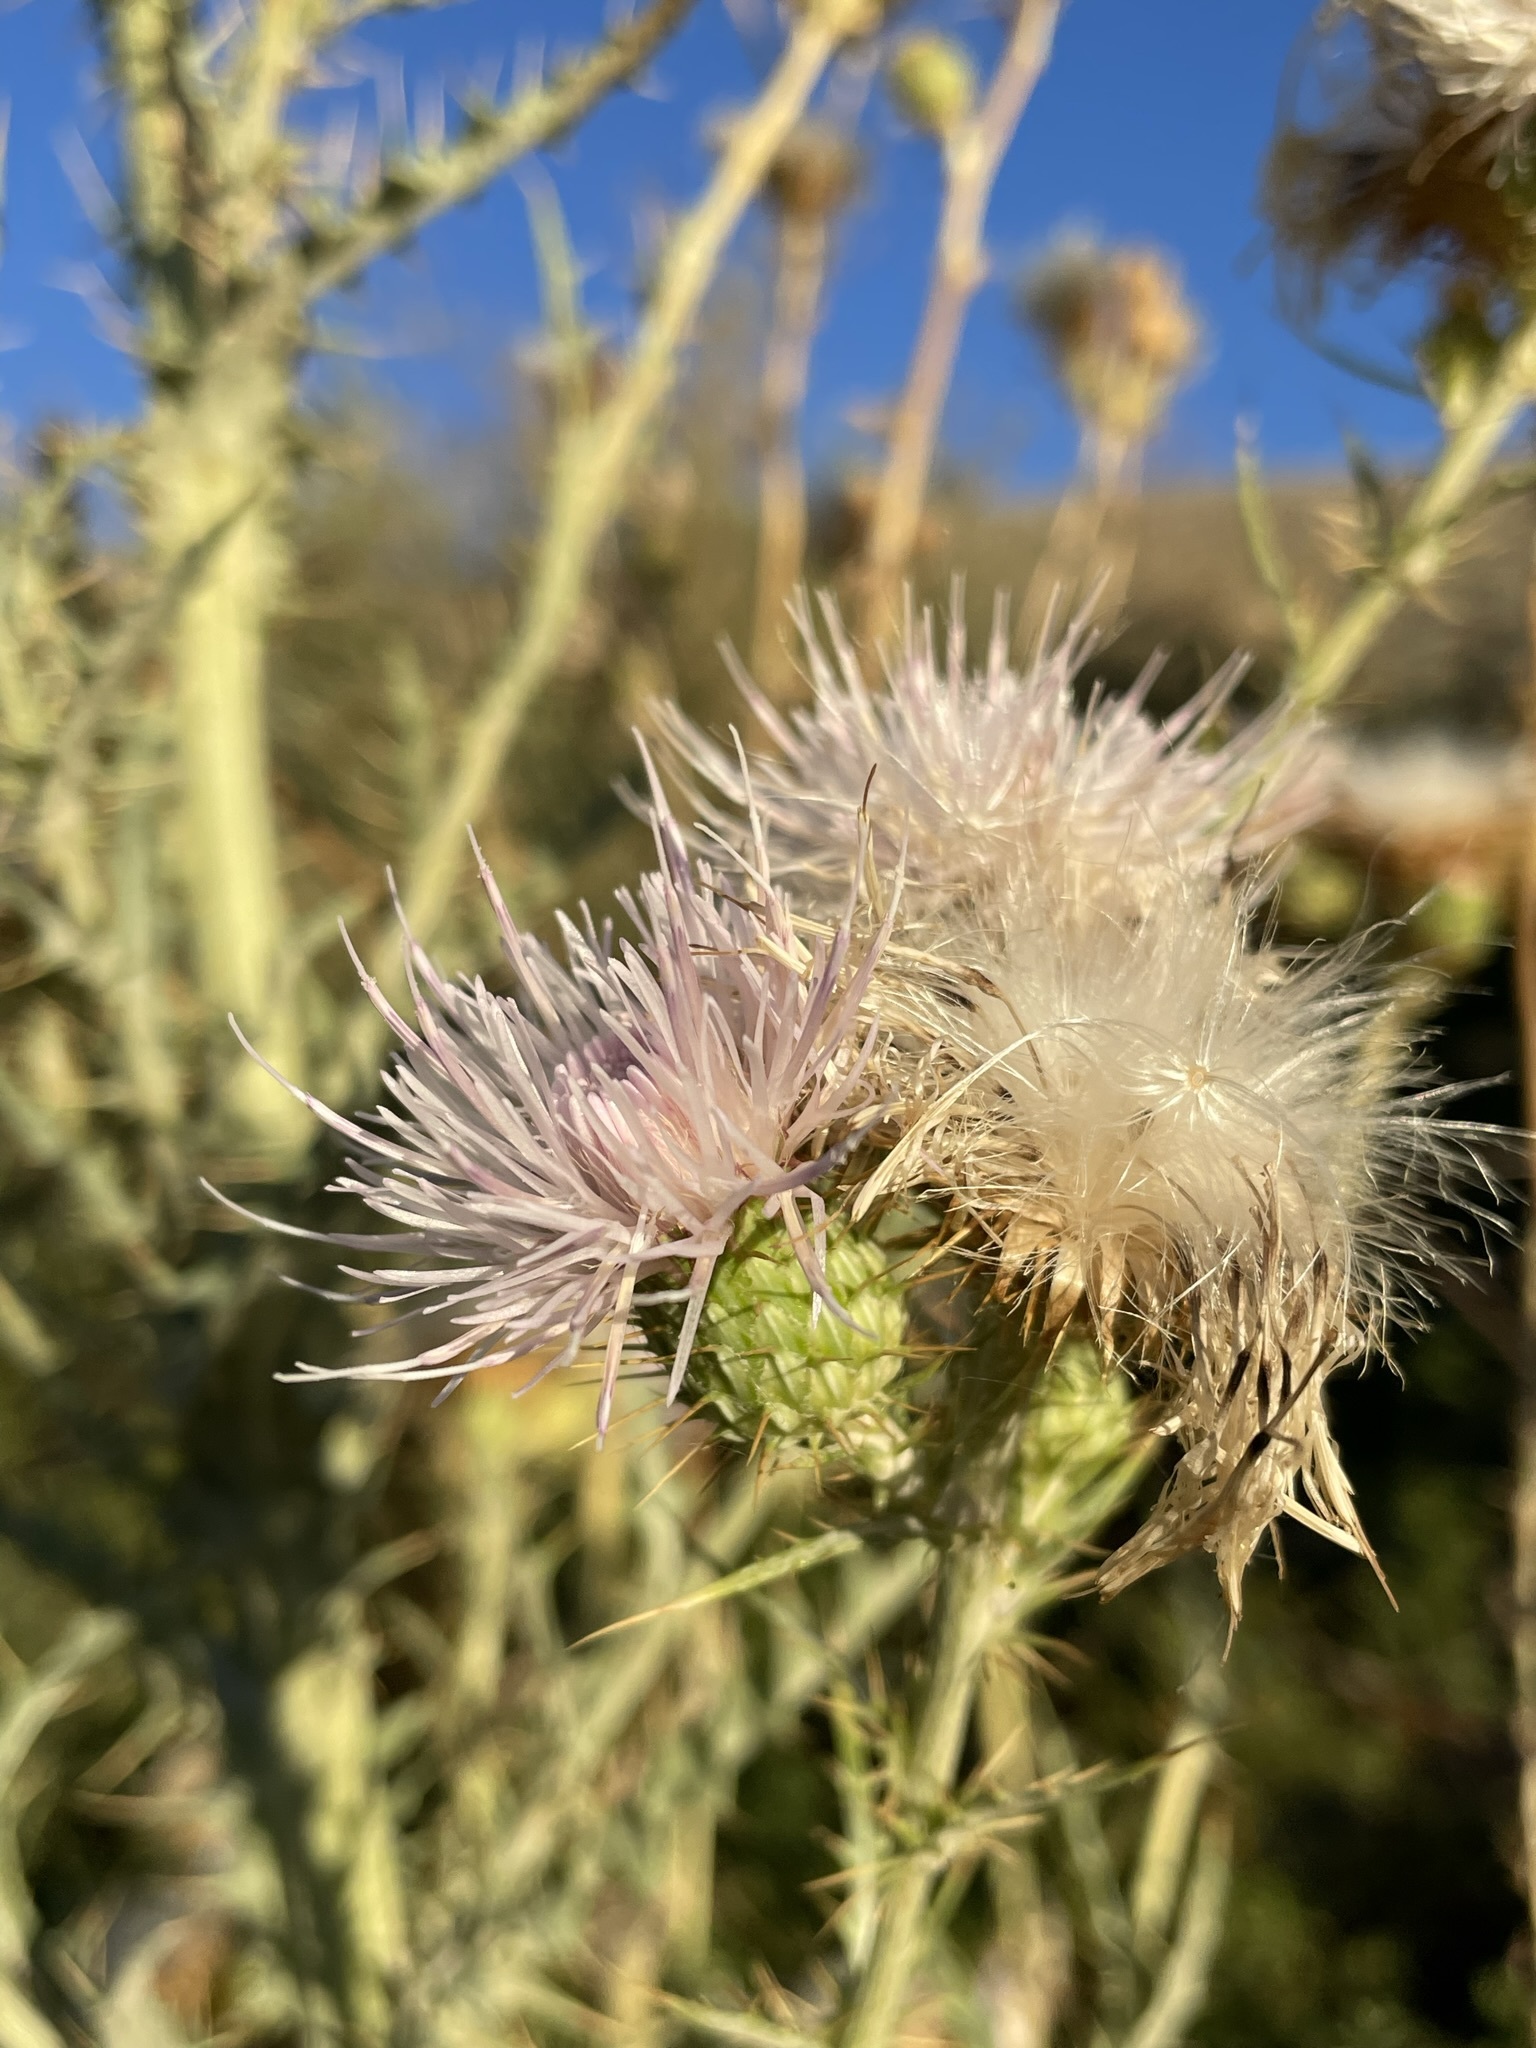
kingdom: Plantae
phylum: Tracheophyta
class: Magnoliopsida
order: Asterales
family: Asteraceae
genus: Cirsium
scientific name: Cirsium mohavense
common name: Mojave thistle
